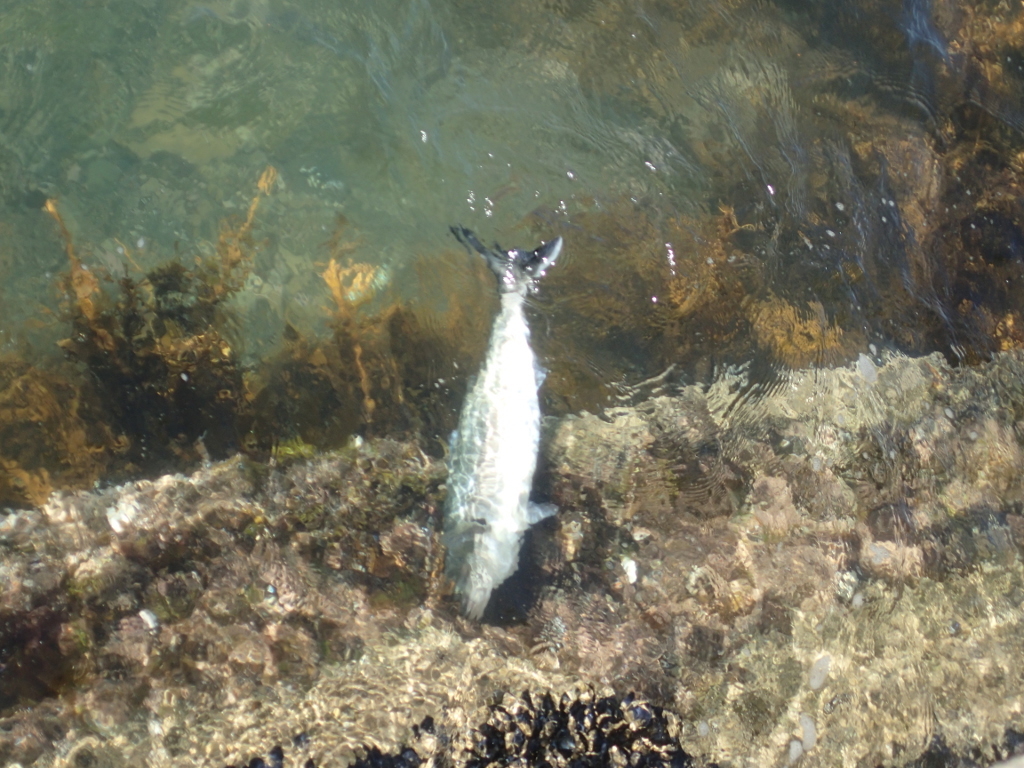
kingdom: Animalia
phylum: Chordata
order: Perciformes
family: Arripidae
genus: Arripis
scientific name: Arripis trutta
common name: Kahawai
